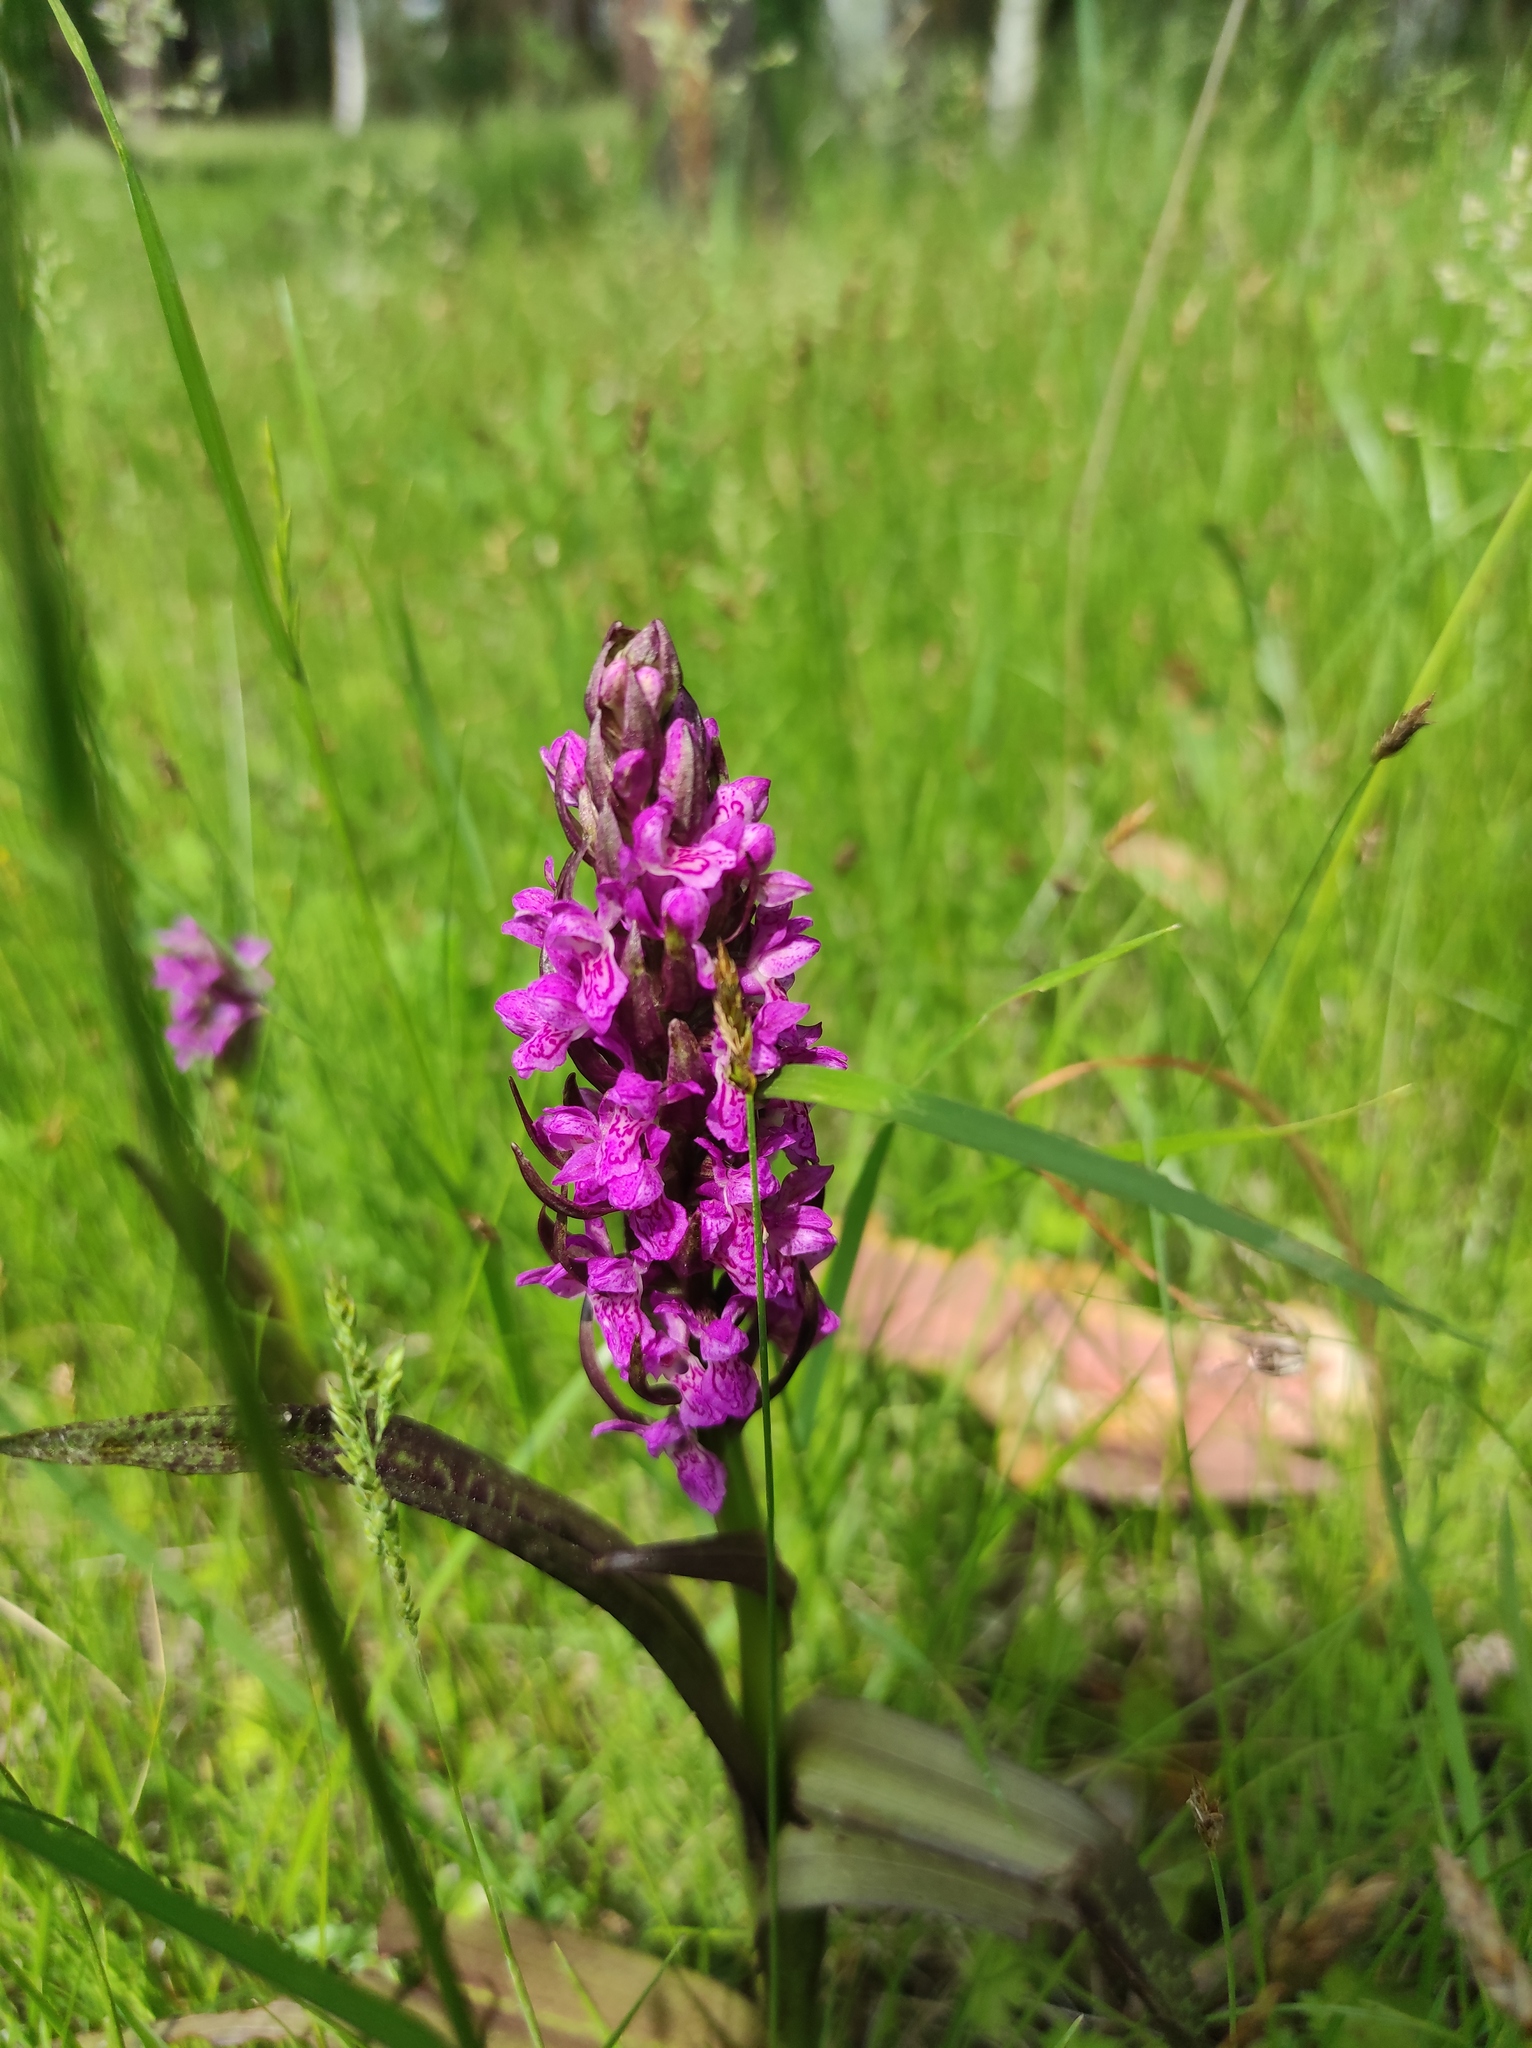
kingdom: Plantae
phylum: Tracheophyta
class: Liliopsida
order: Asparagales
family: Orchidaceae
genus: Dactylorhiza
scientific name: Dactylorhiza incarnata
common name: Early marsh-orchid
